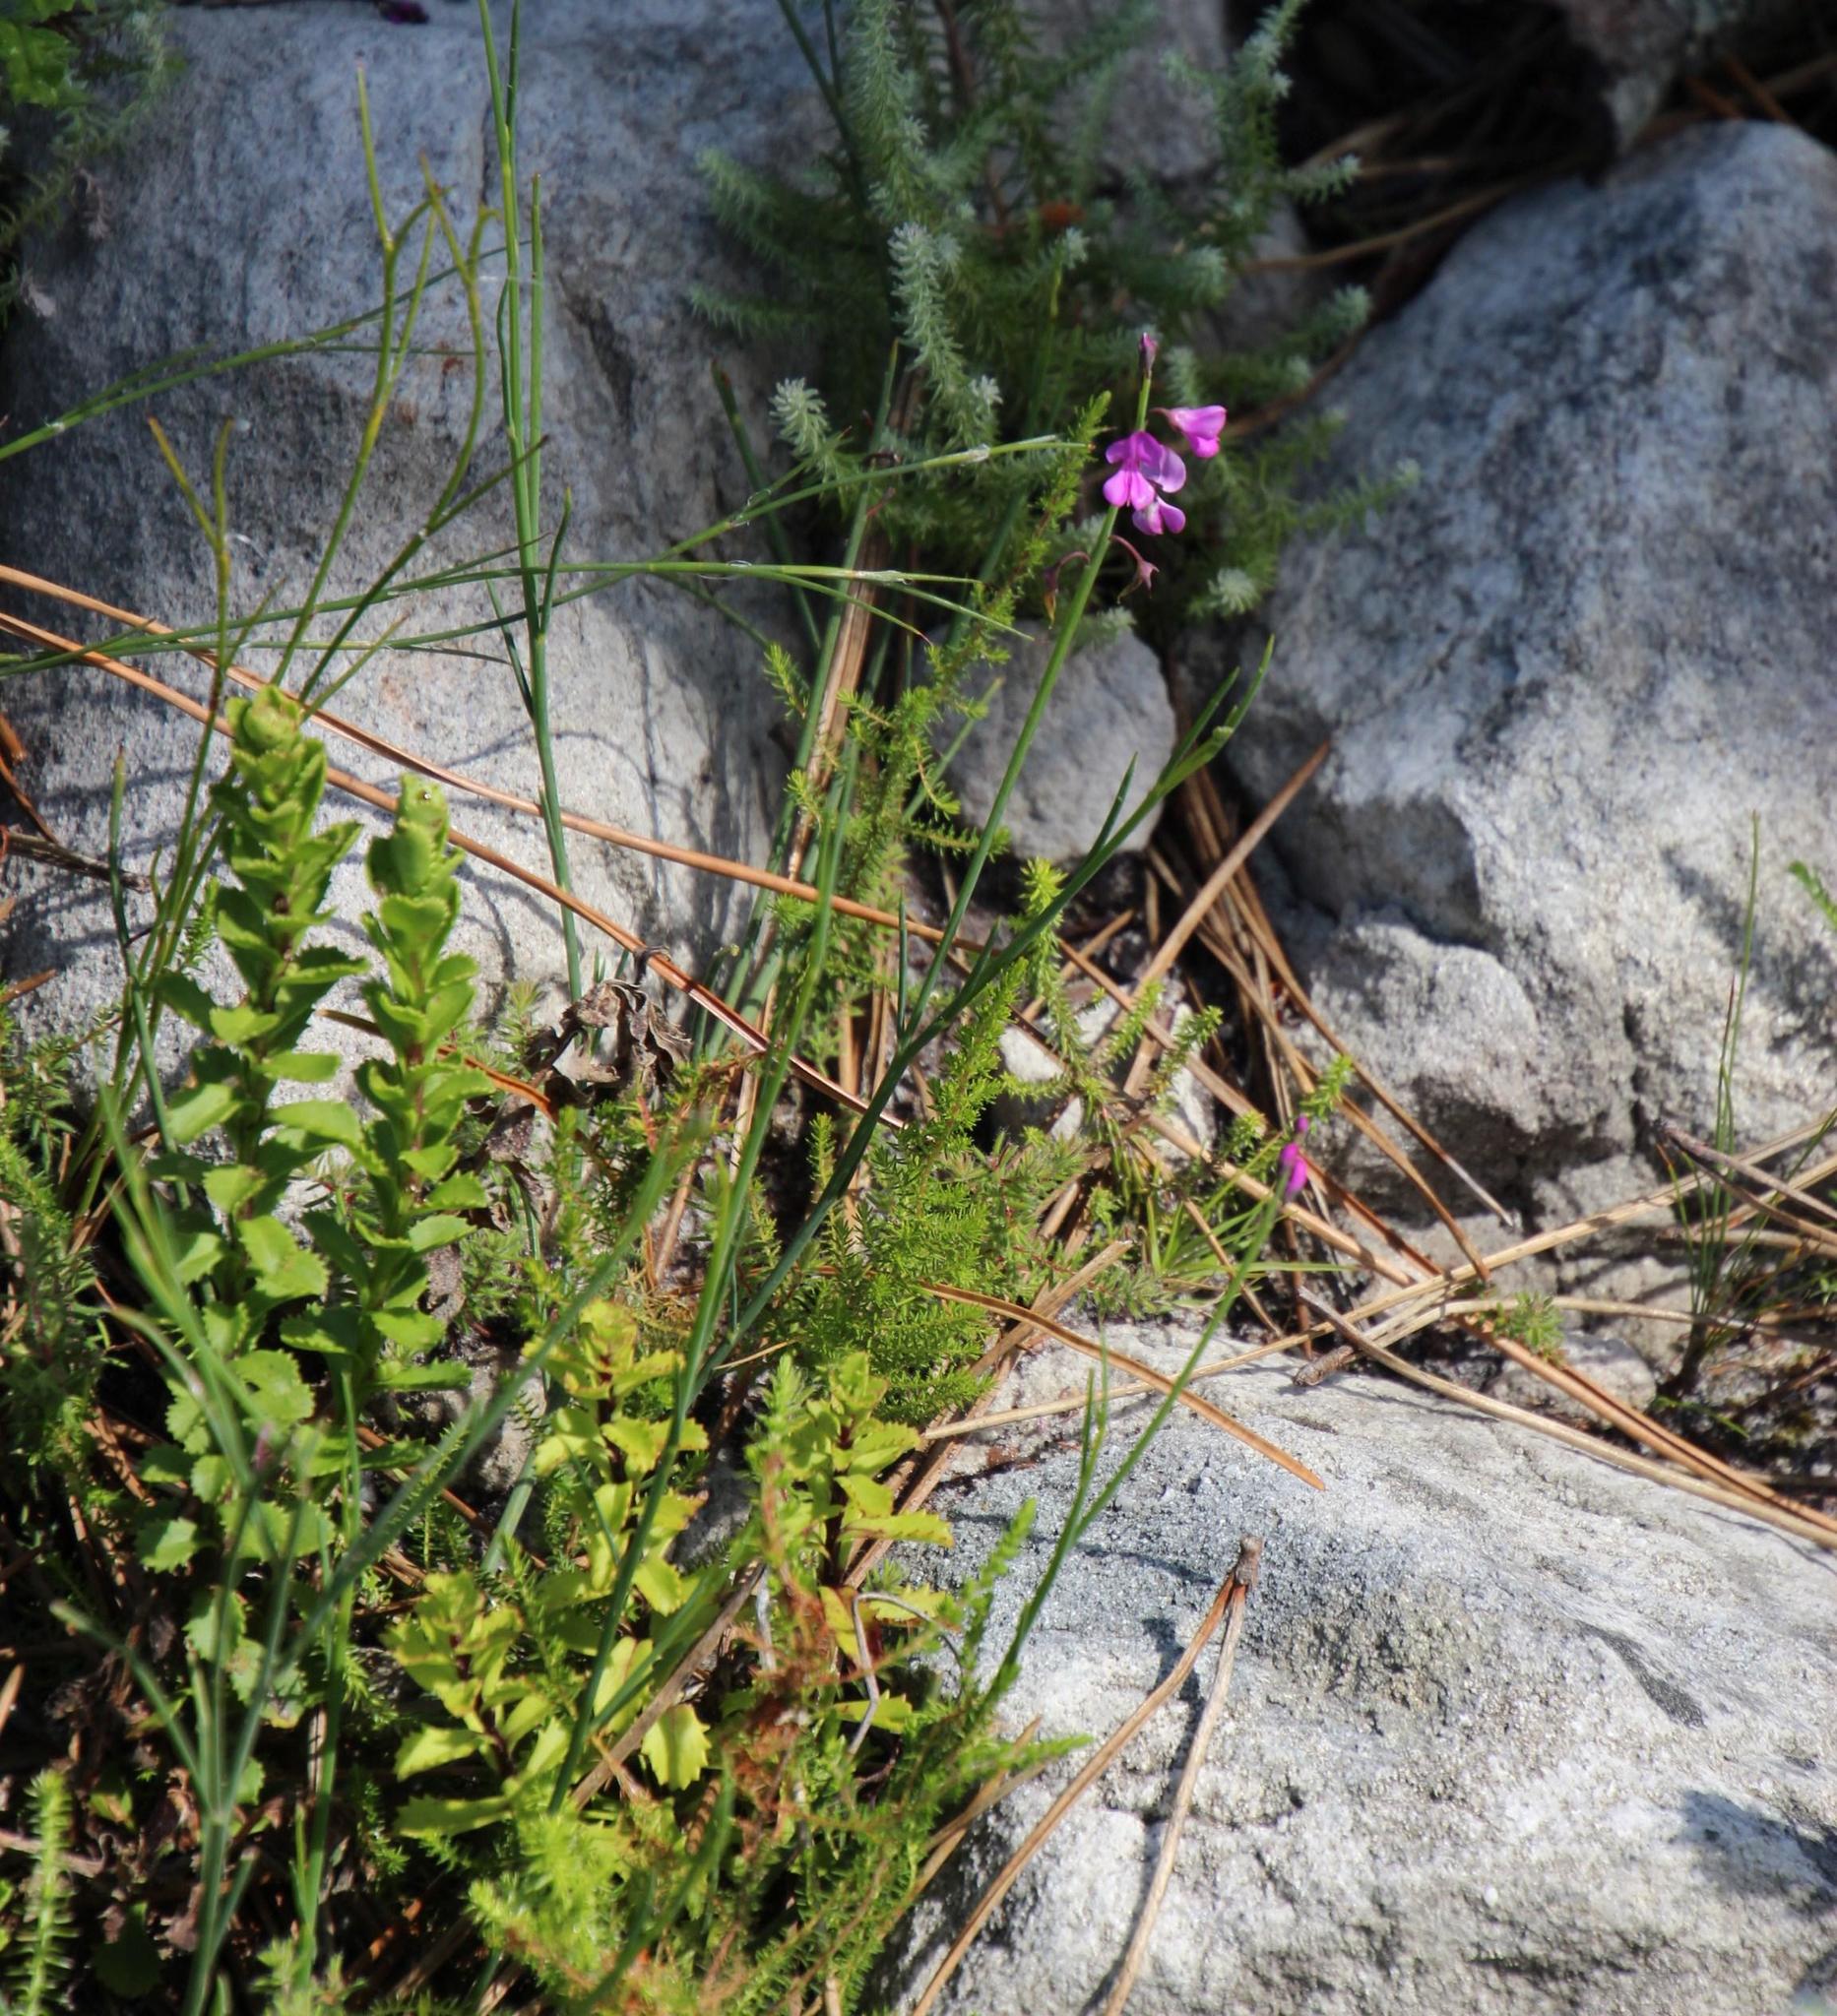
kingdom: Plantae
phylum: Tracheophyta
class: Magnoliopsida
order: Fabales
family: Fabaceae
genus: Indigofera
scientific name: Indigofera ionii
